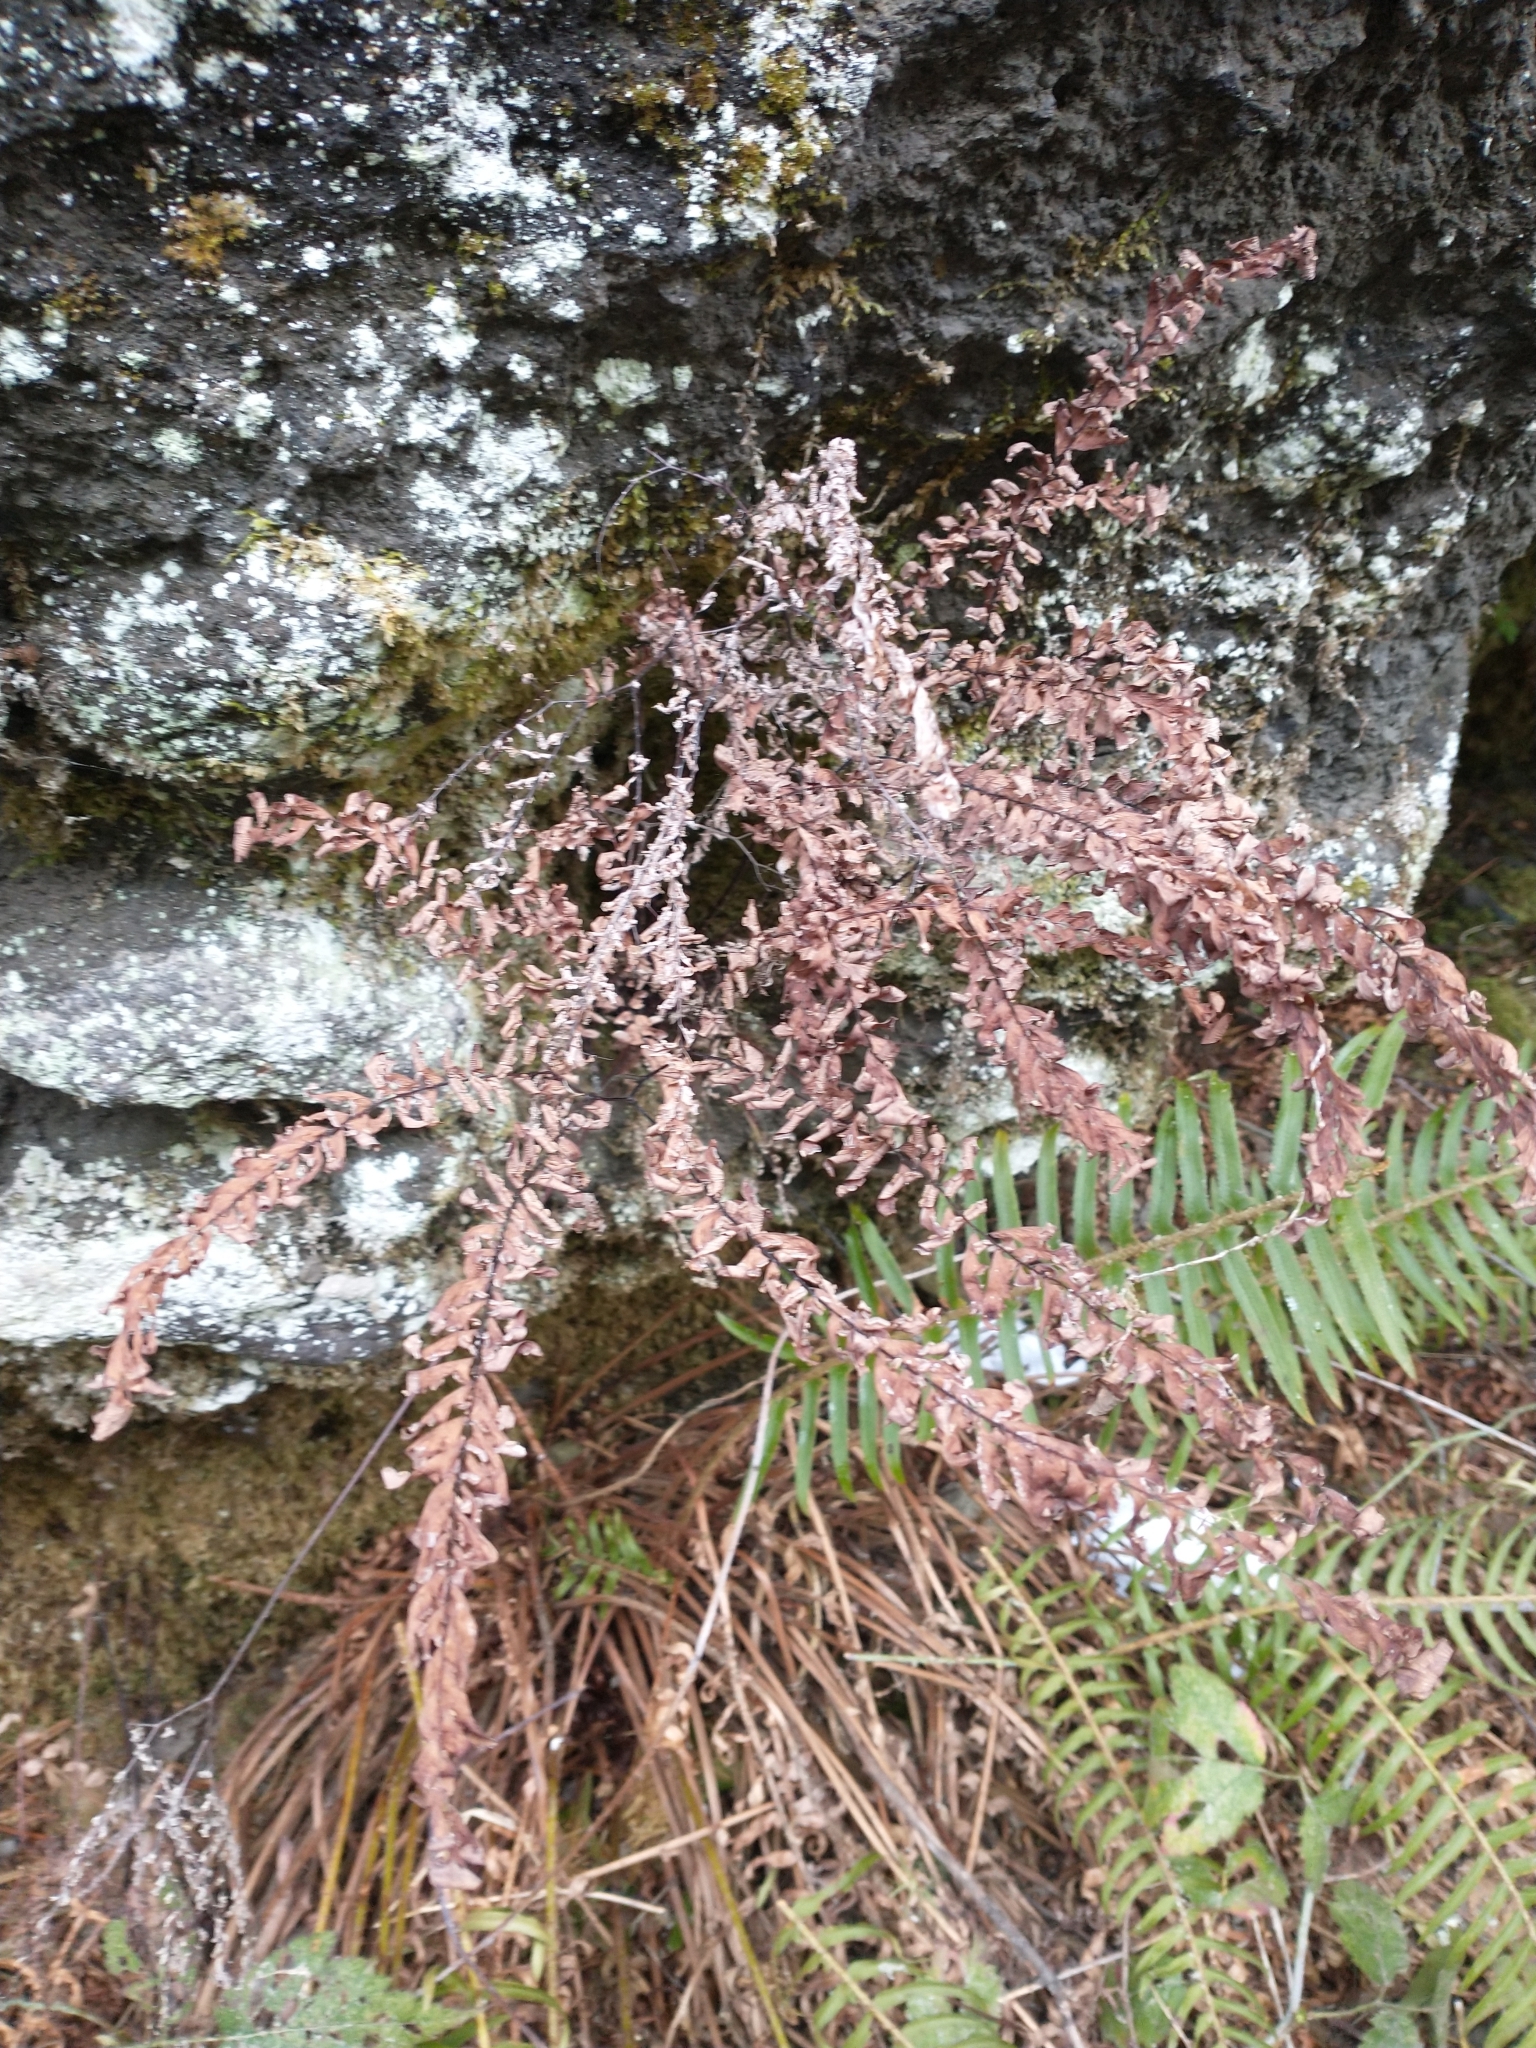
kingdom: Plantae
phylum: Tracheophyta
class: Polypodiopsida
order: Polypodiales
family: Pteridaceae
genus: Adiantum
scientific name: Adiantum aleuticum
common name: Aleutian maidenhair fern
